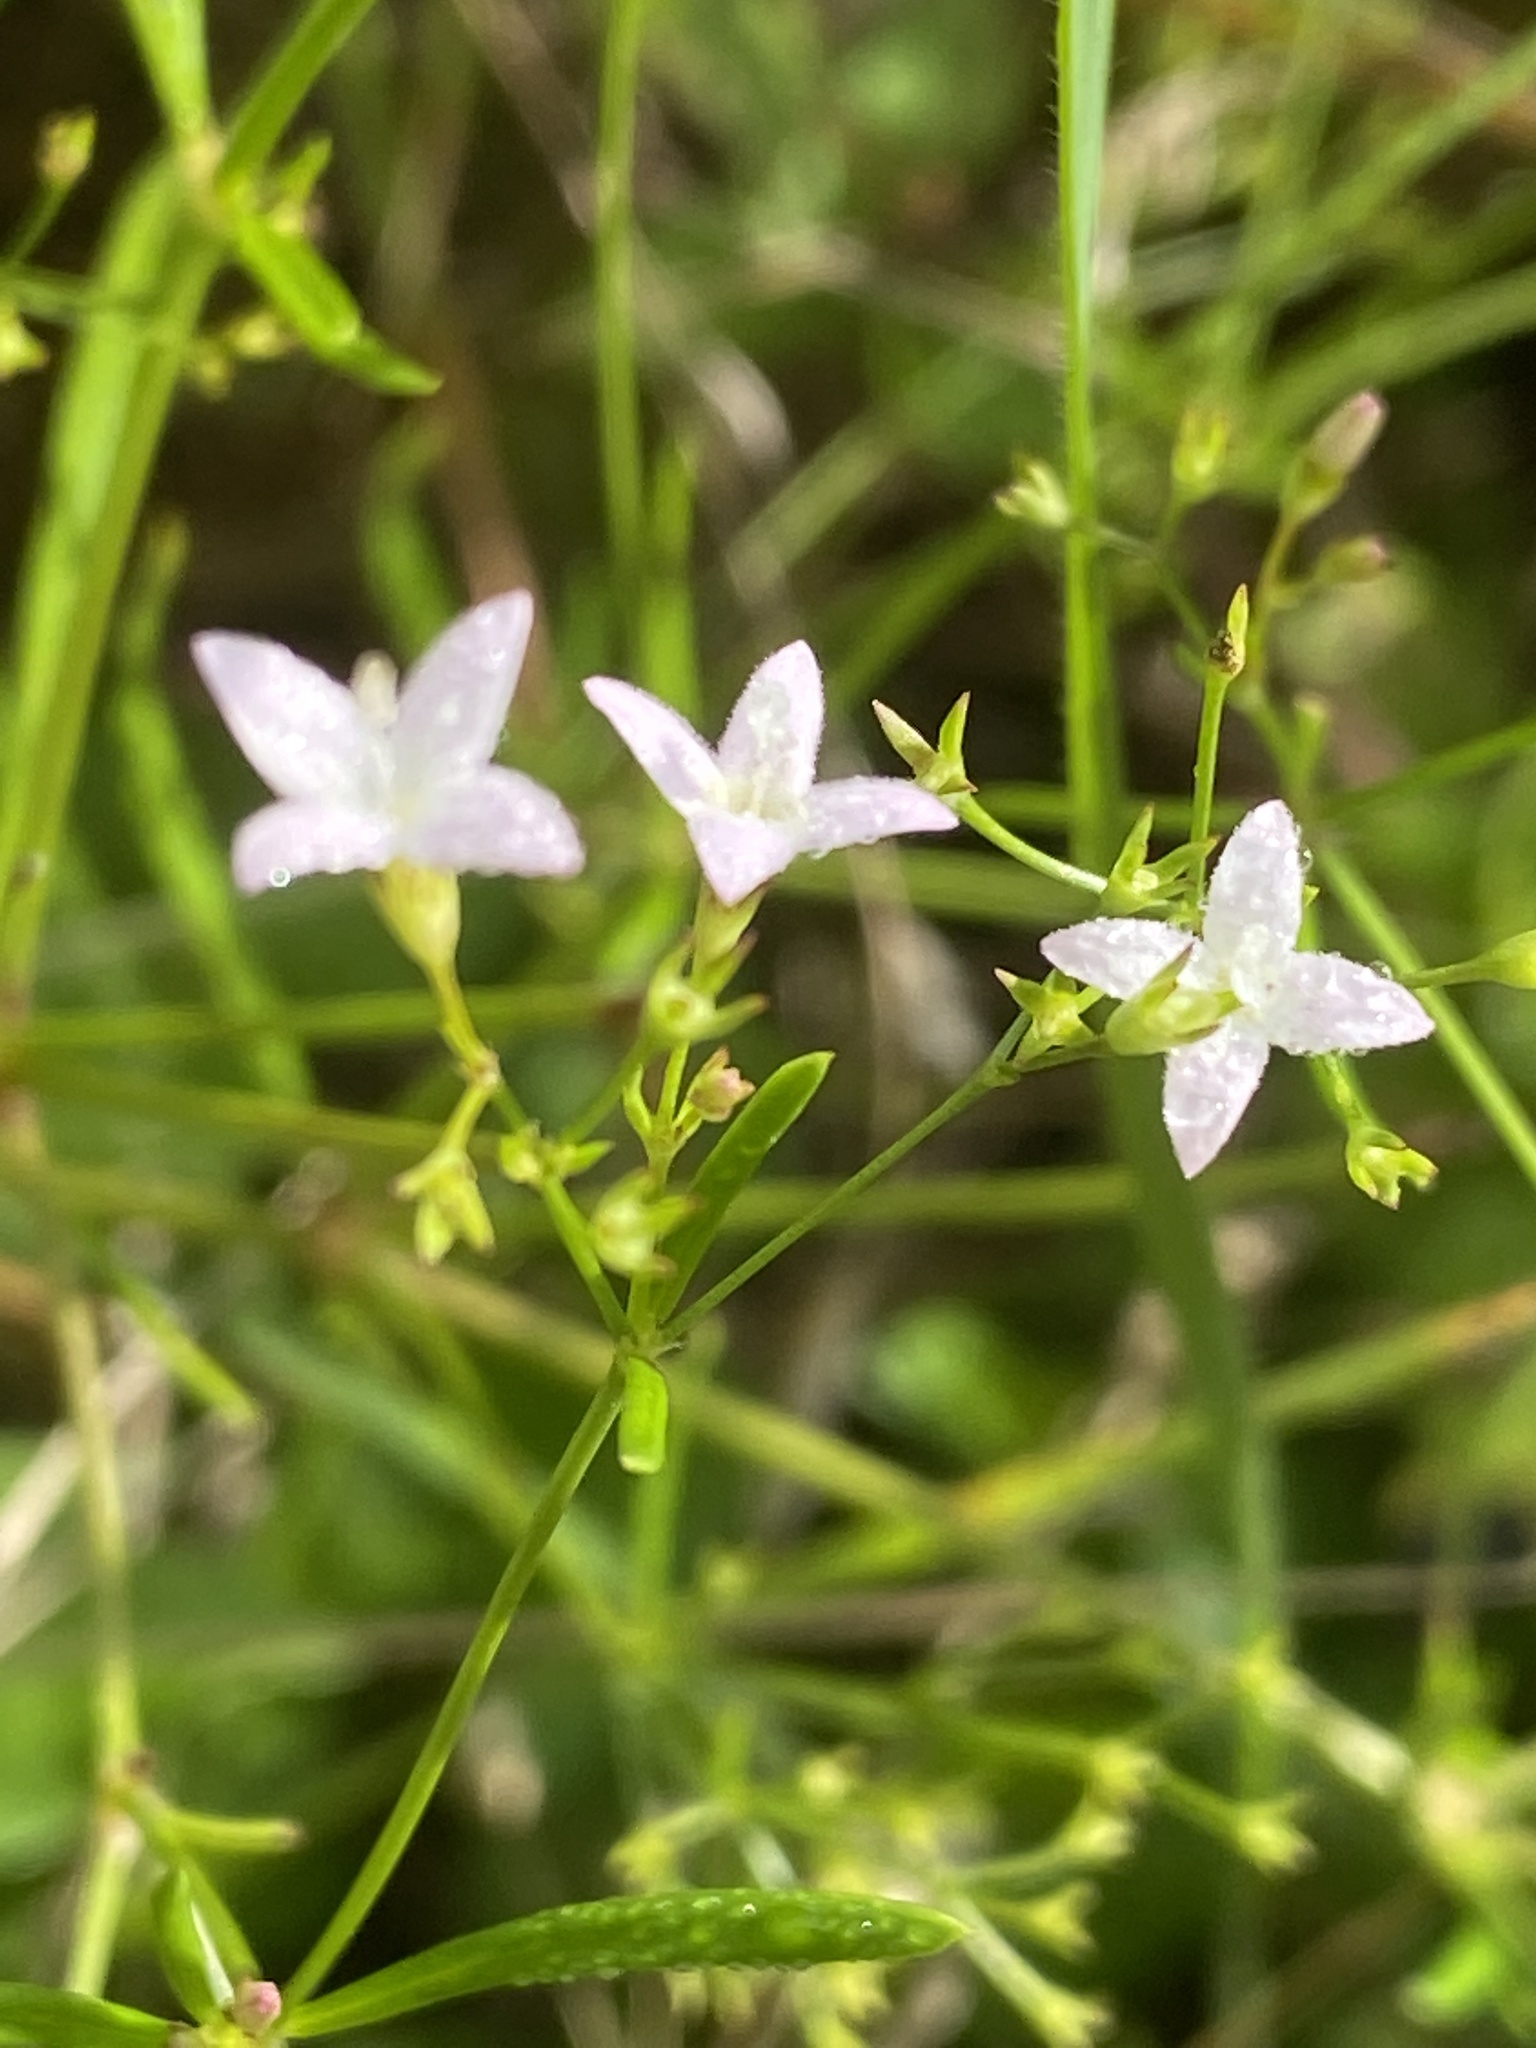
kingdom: Plantae
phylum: Tracheophyta
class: Magnoliopsida
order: Gentianales
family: Rubiaceae
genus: Stenaria
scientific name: Stenaria nigricans
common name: Diamondflowers
